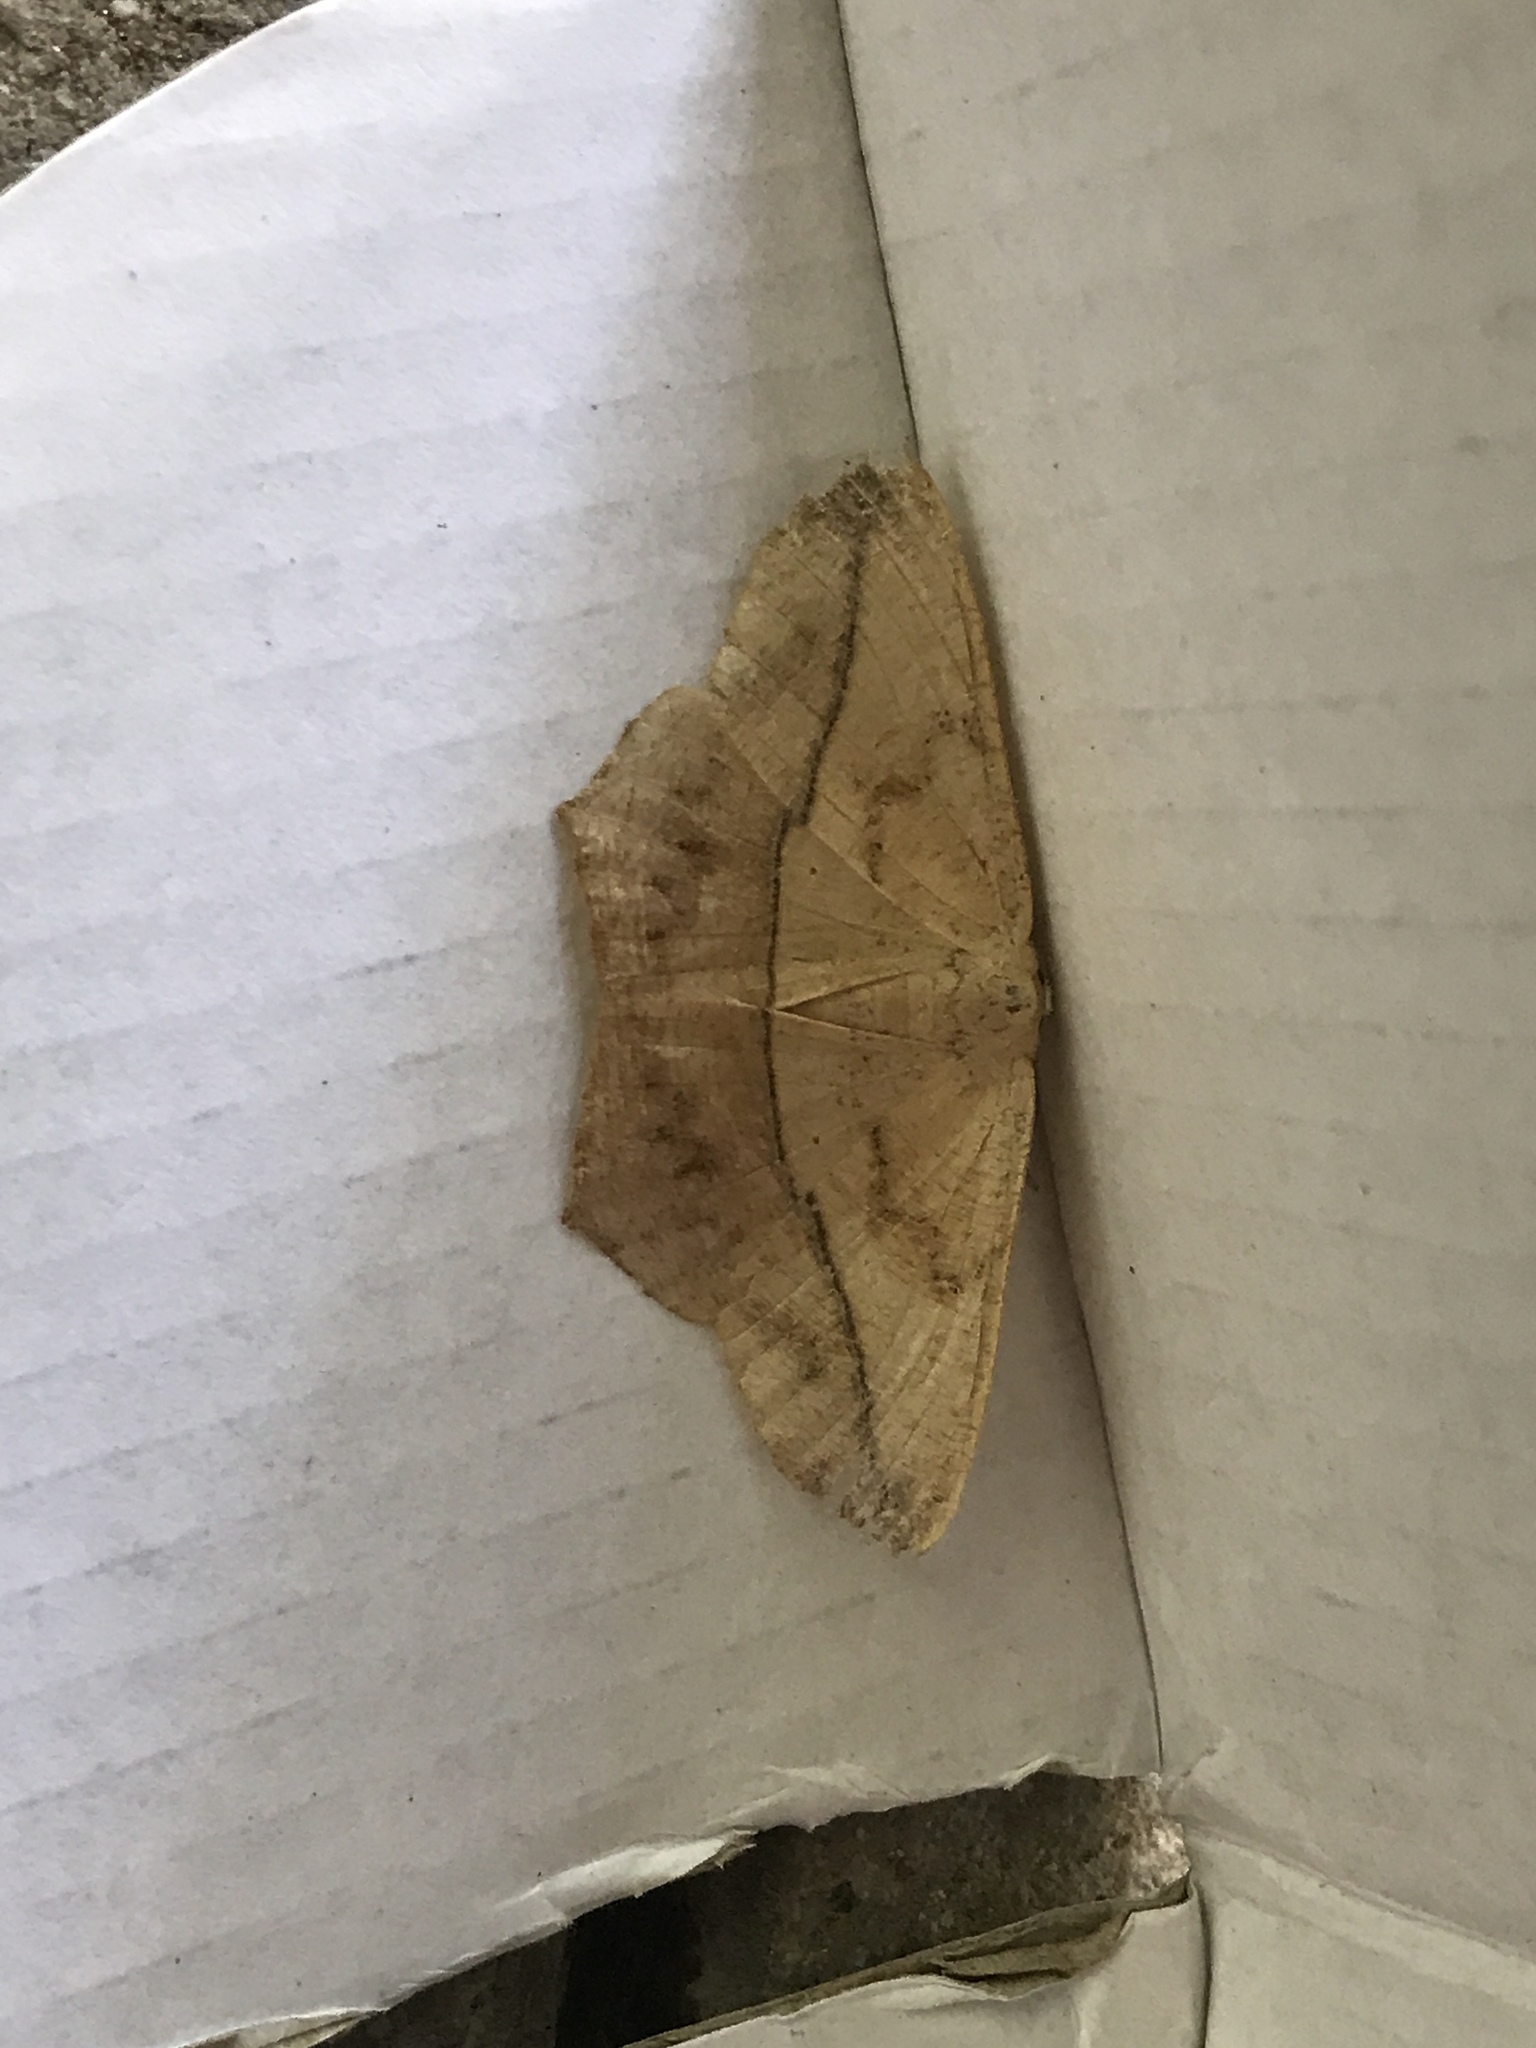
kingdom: Animalia
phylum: Arthropoda
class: Insecta
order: Lepidoptera
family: Geometridae
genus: Prochoerodes
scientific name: Prochoerodes lineola
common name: Large maple spanworm
